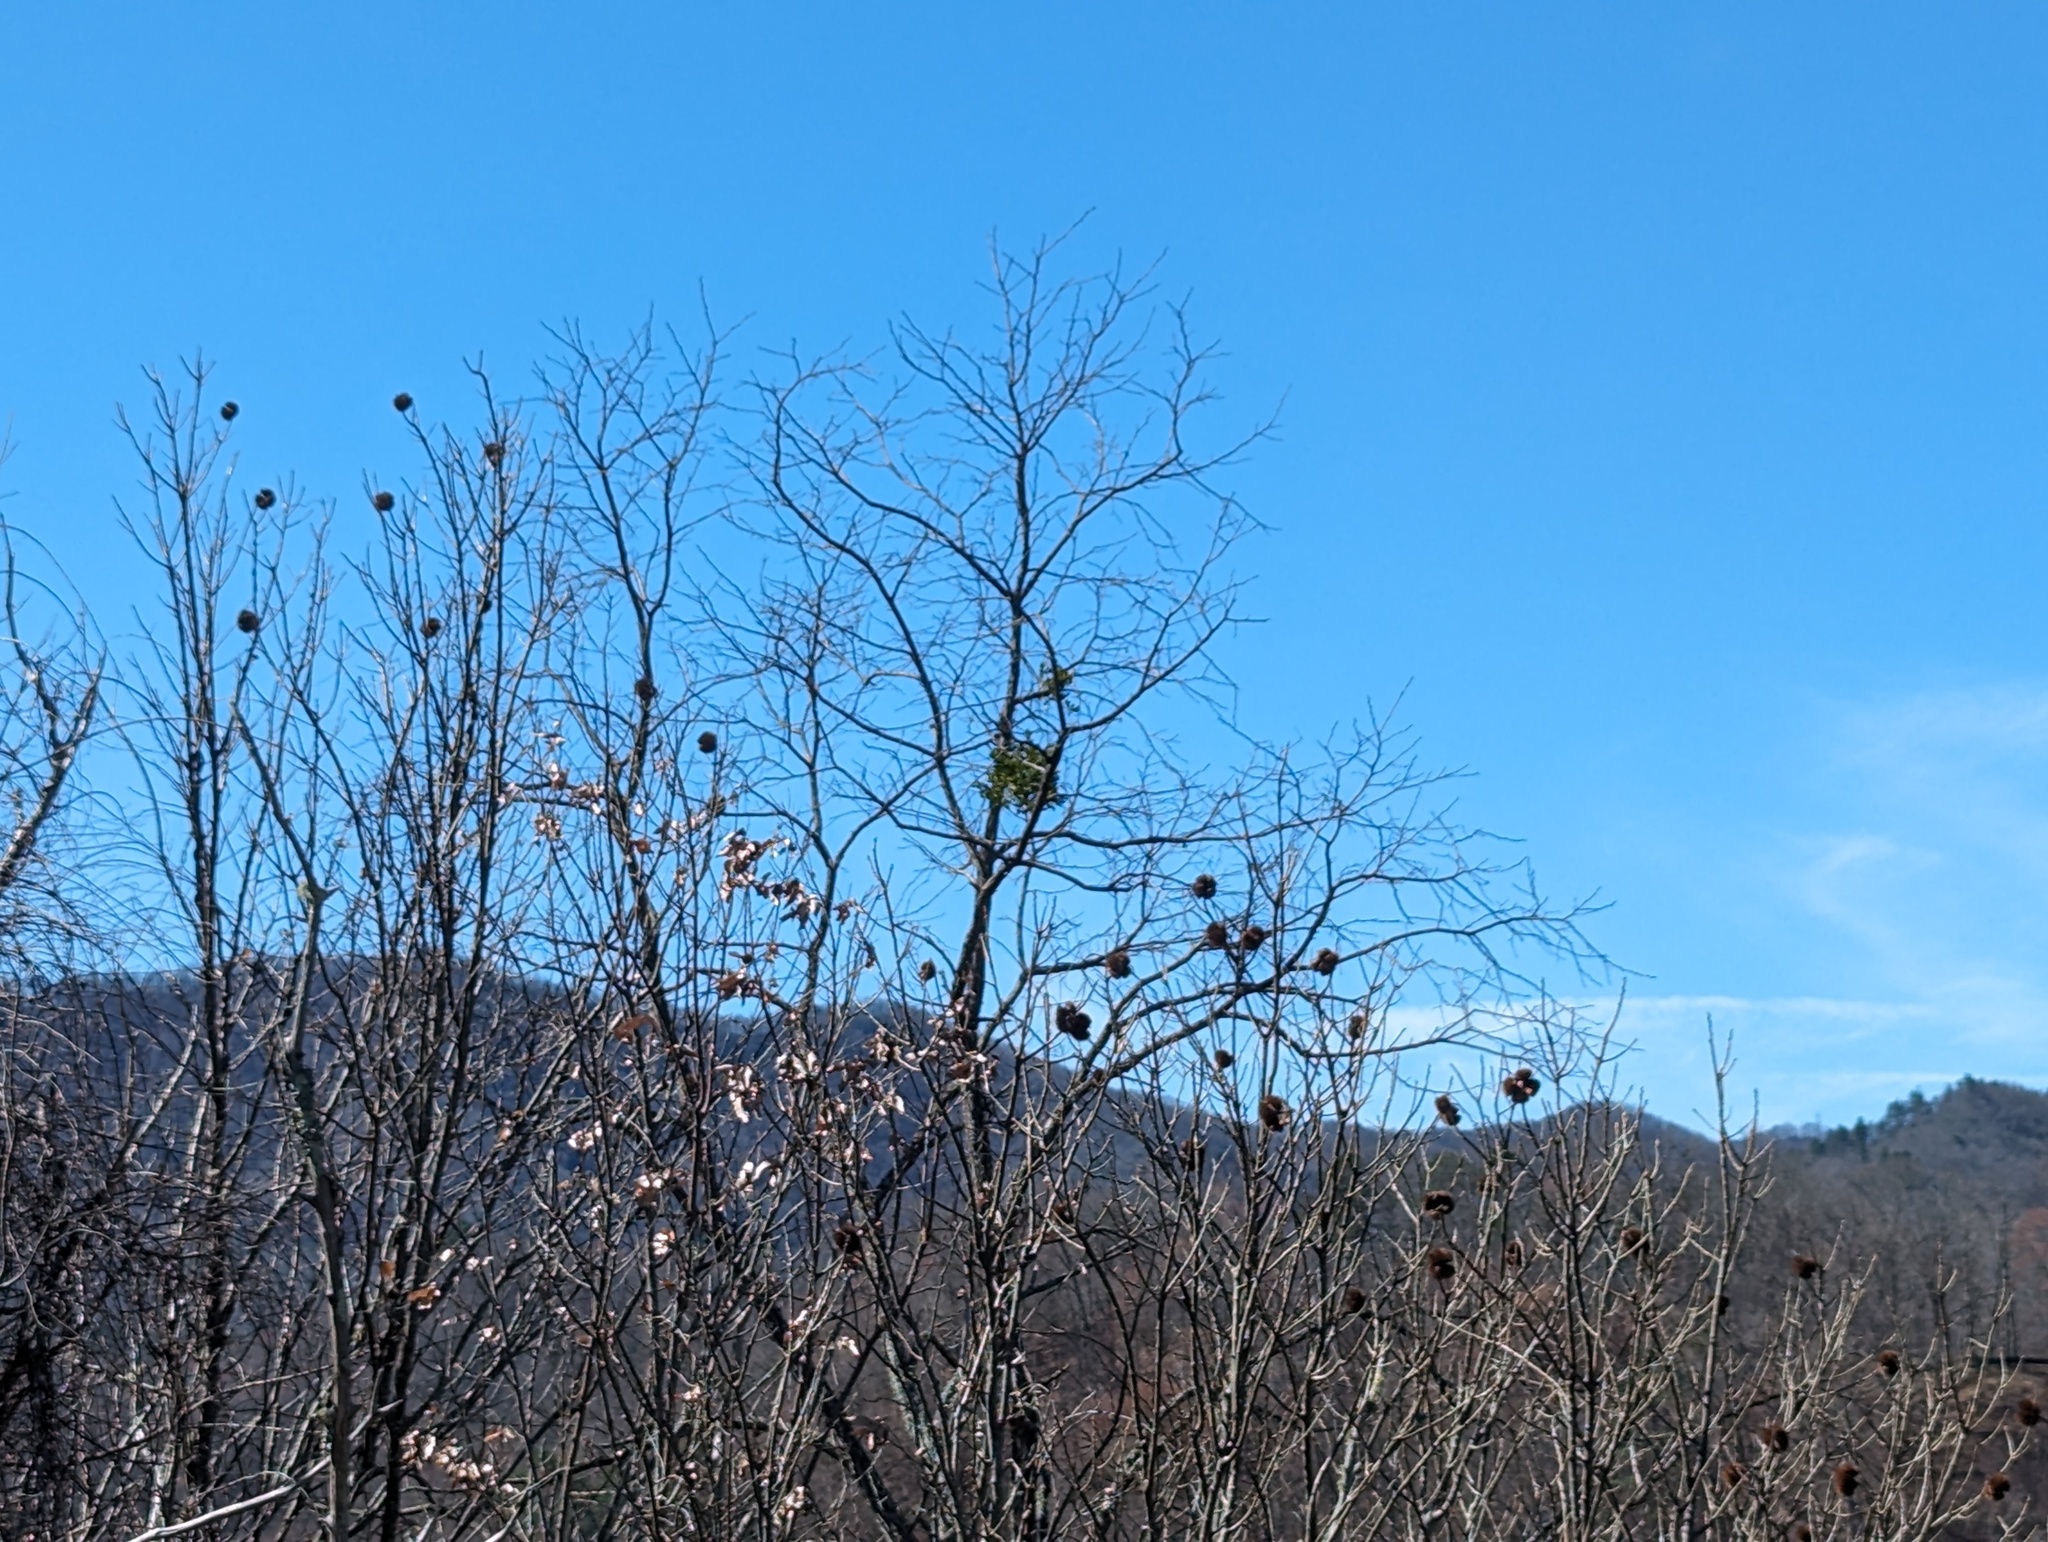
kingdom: Plantae
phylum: Tracheophyta
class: Magnoliopsida
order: Santalales
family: Viscaceae
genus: Phoradendron
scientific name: Phoradendron leucarpum
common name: Pacific mistletoe
